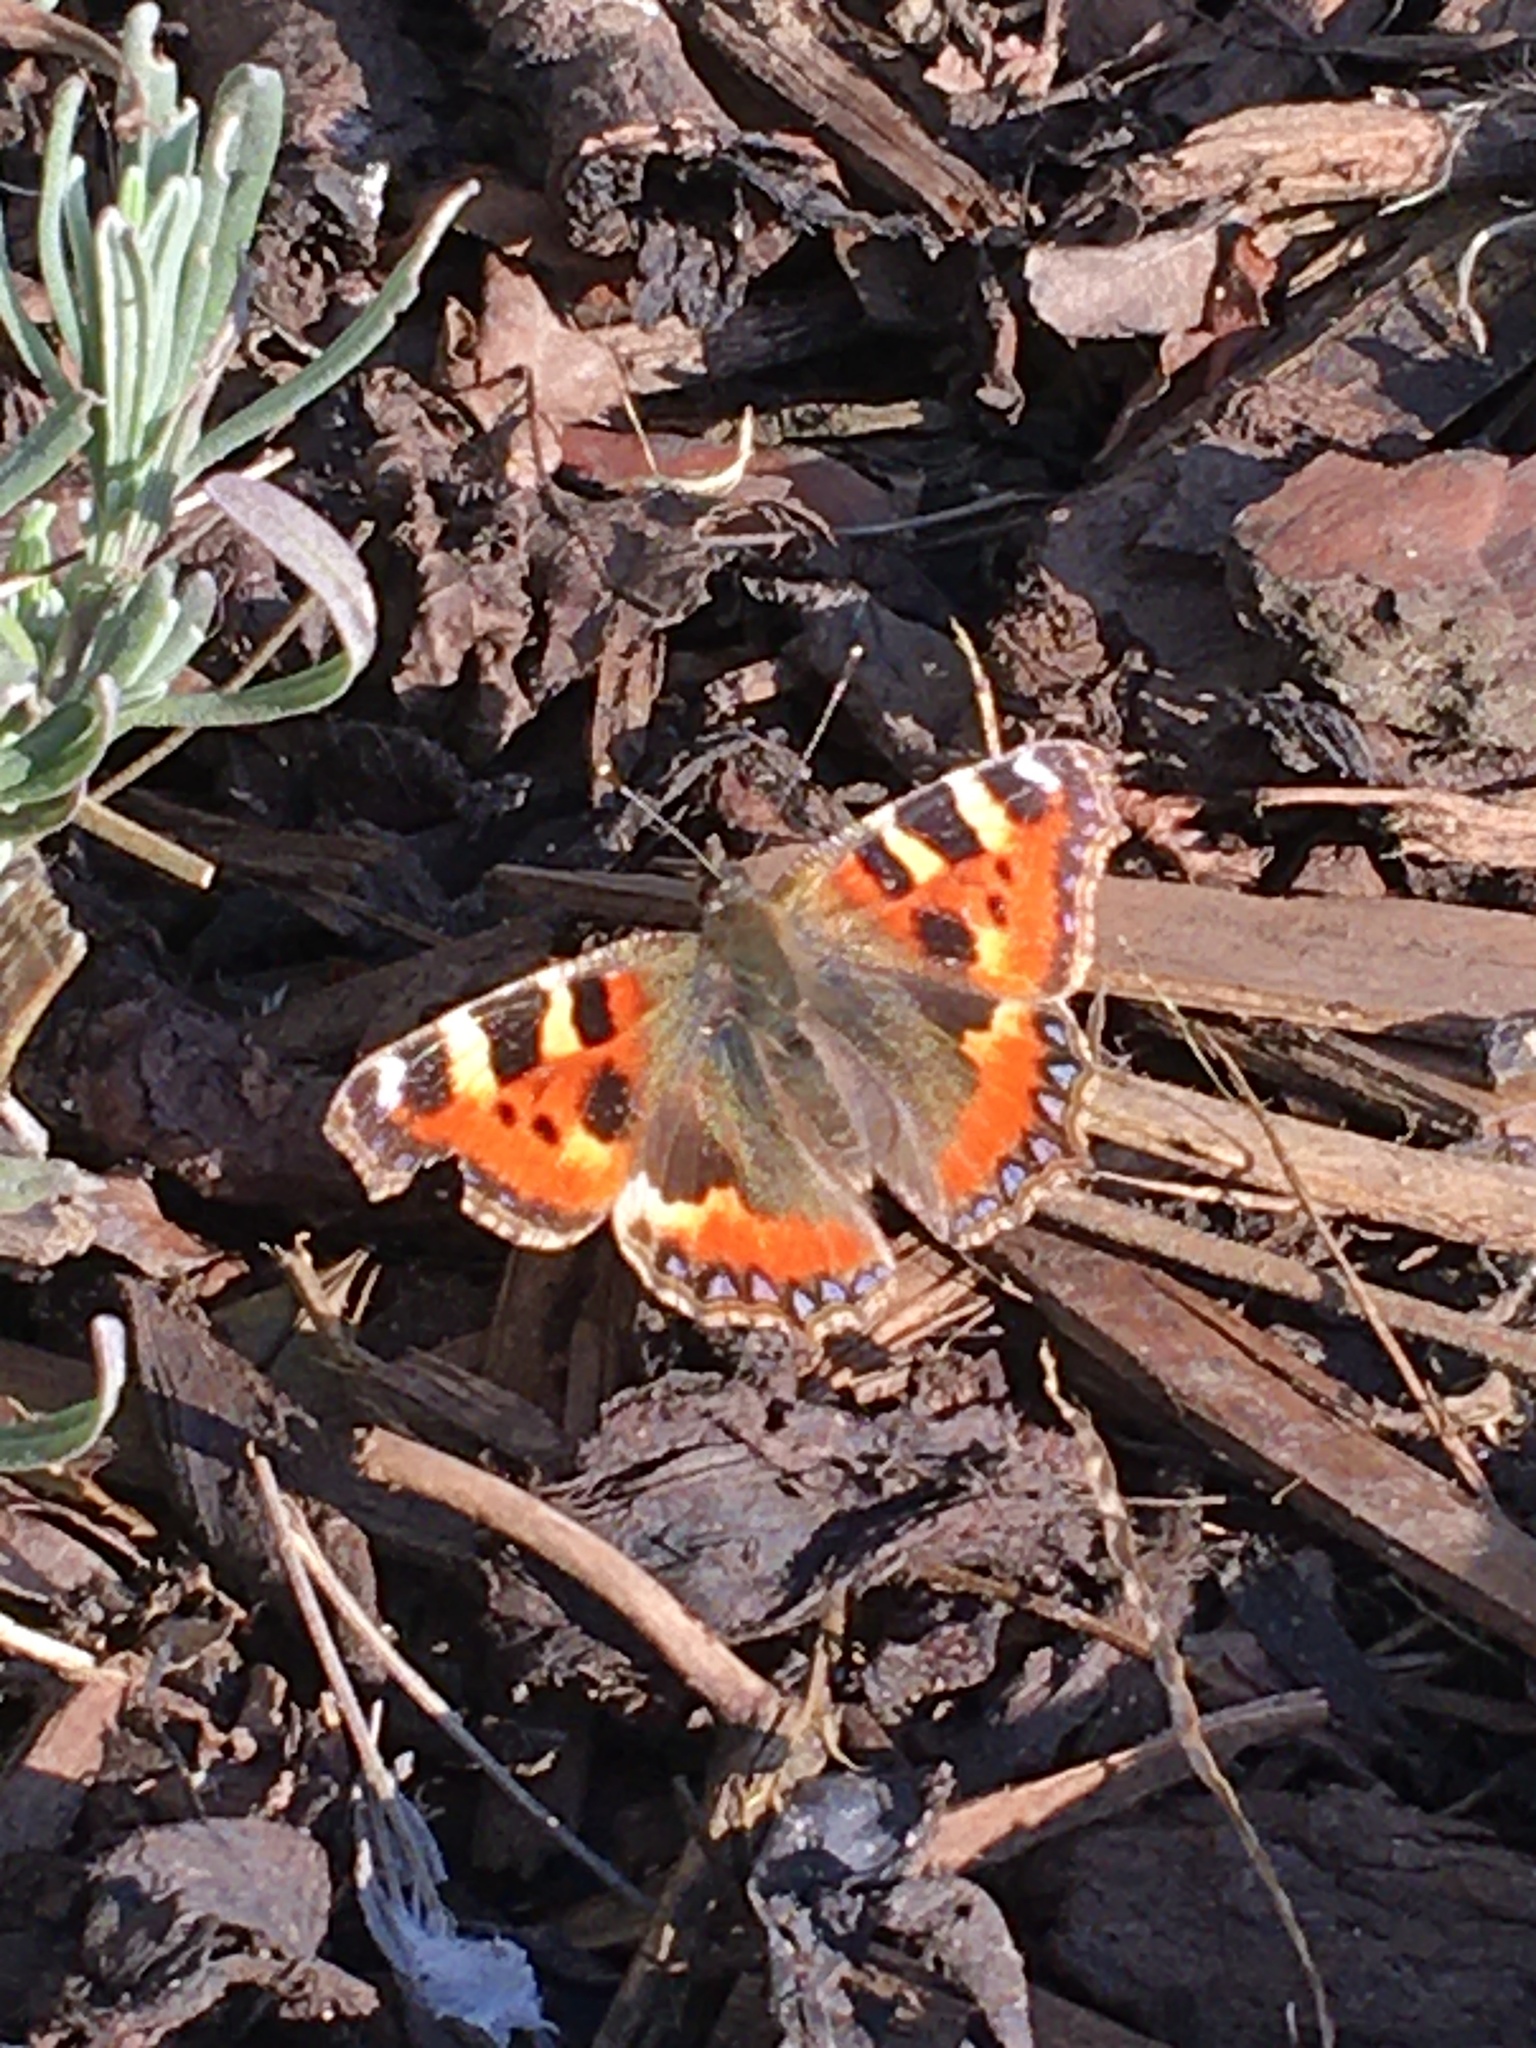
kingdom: Animalia
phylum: Arthropoda
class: Insecta
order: Lepidoptera
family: Nymphalidae
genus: Aglais
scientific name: Aglais urticae
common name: Small tortoiseshell
